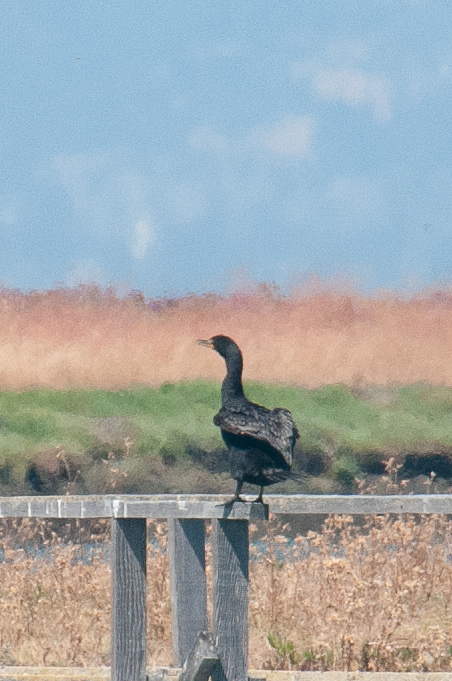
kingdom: Animalia
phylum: Chordata
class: Aves
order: Suliformes
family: Phalacrocoracidae
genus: Phalacrocorax
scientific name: Phalacrocorax auritus
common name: Double-crested cormorant
